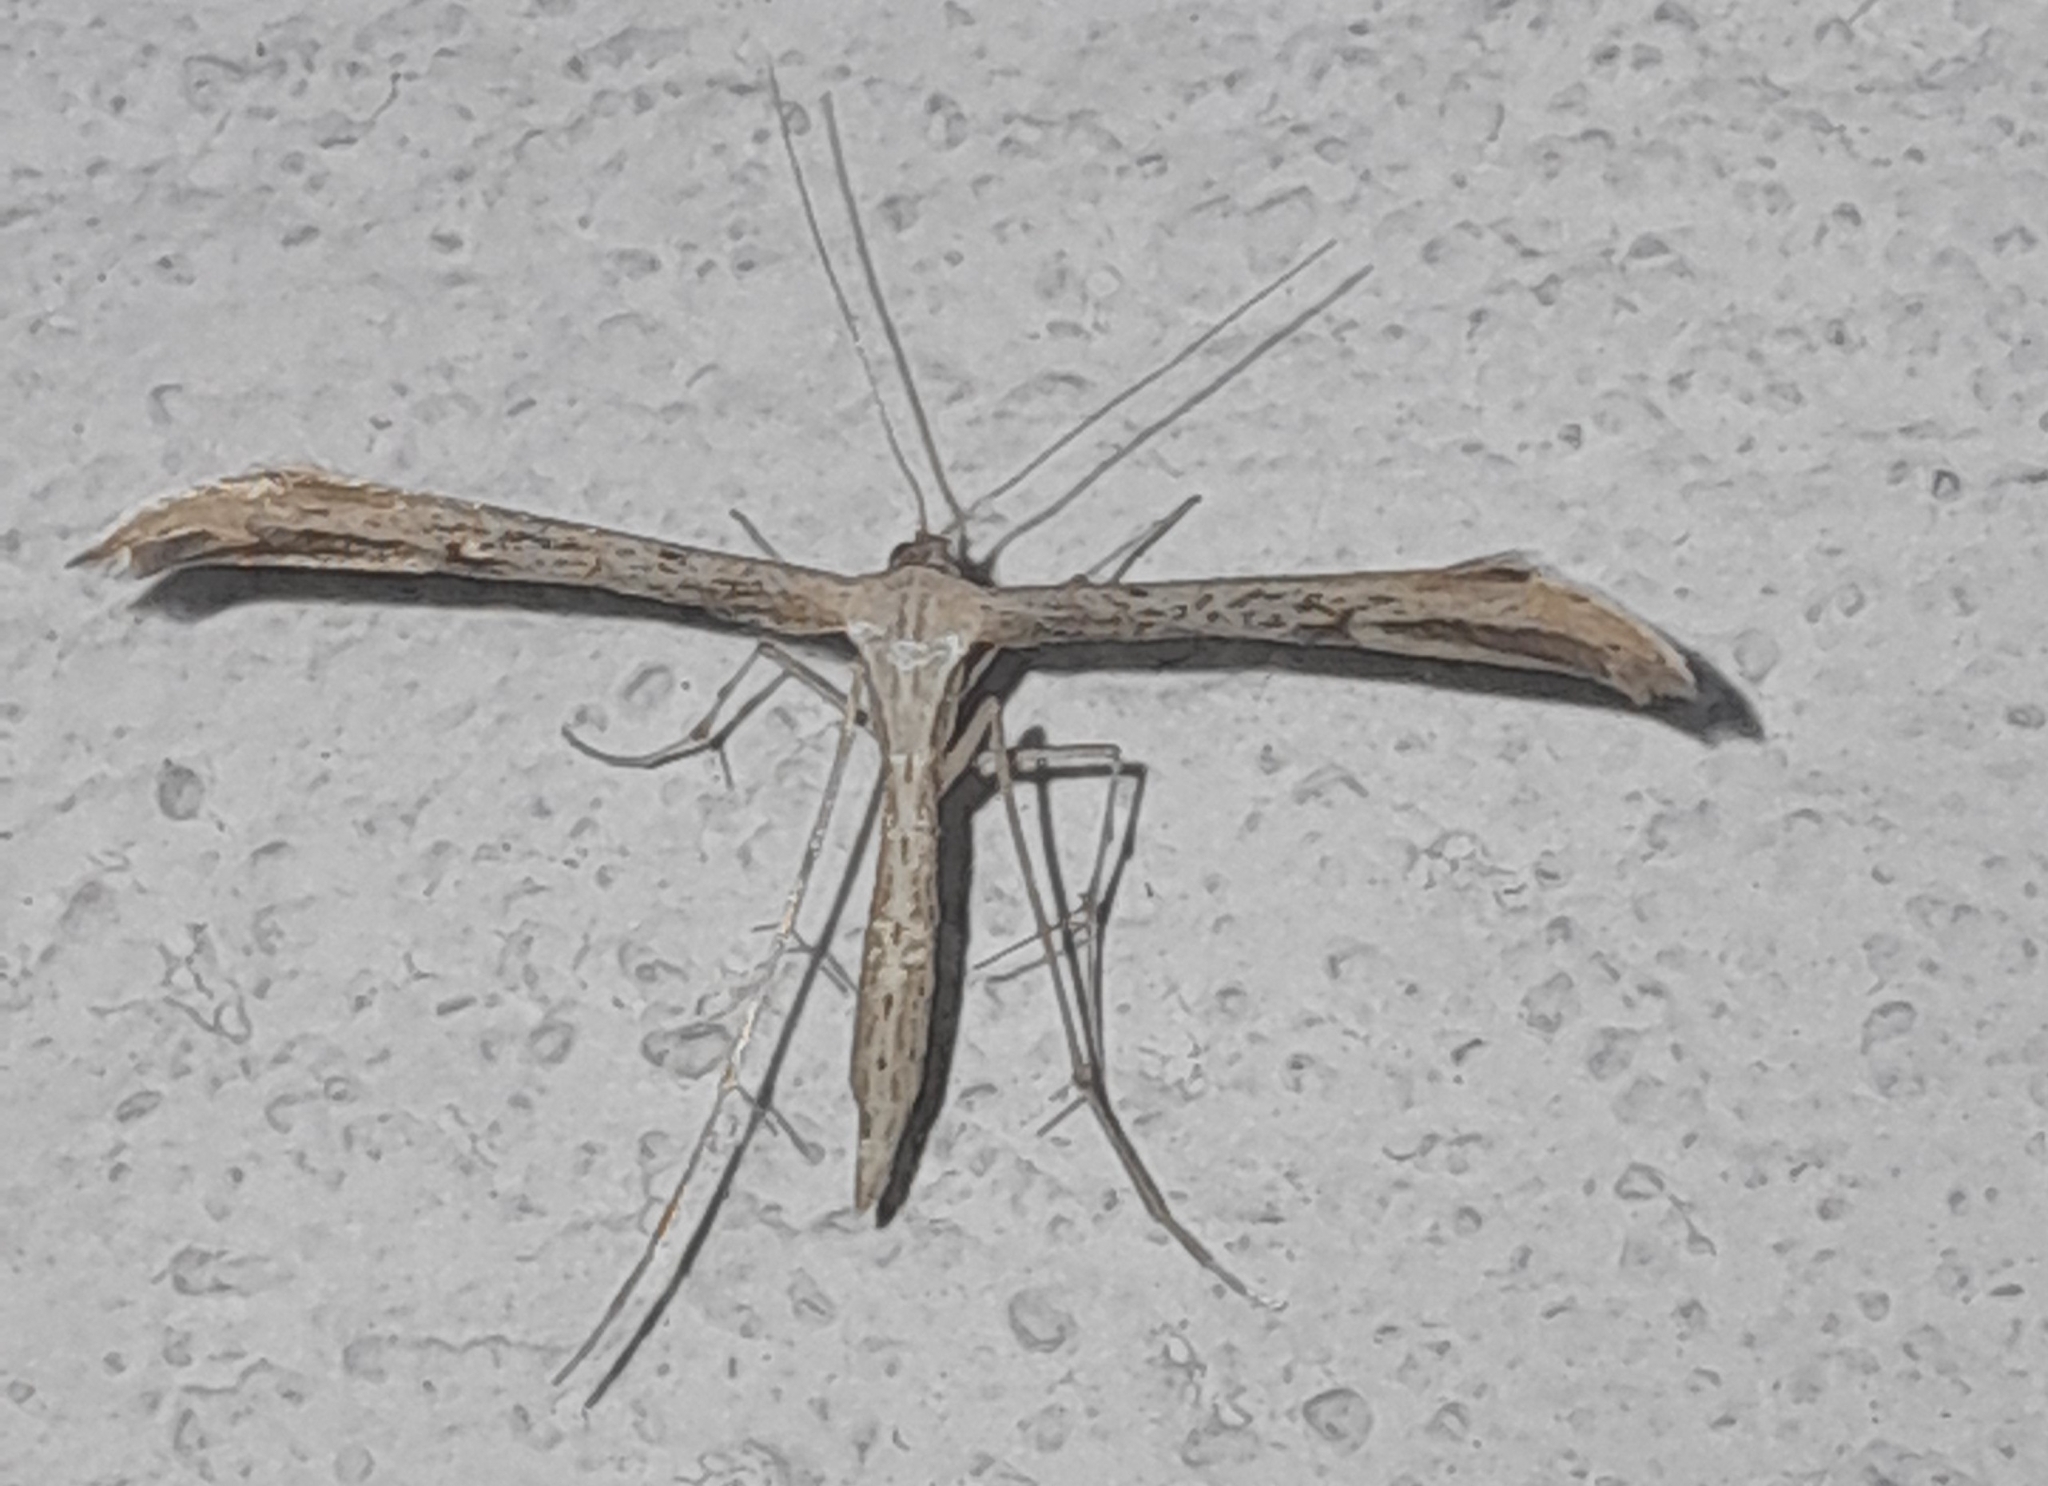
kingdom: Animalia
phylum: Arthropoda
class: Insecta
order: Lepidoptera
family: Pterophoridae
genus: Emmelina
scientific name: Emmelina monodactyla
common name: Common plume
